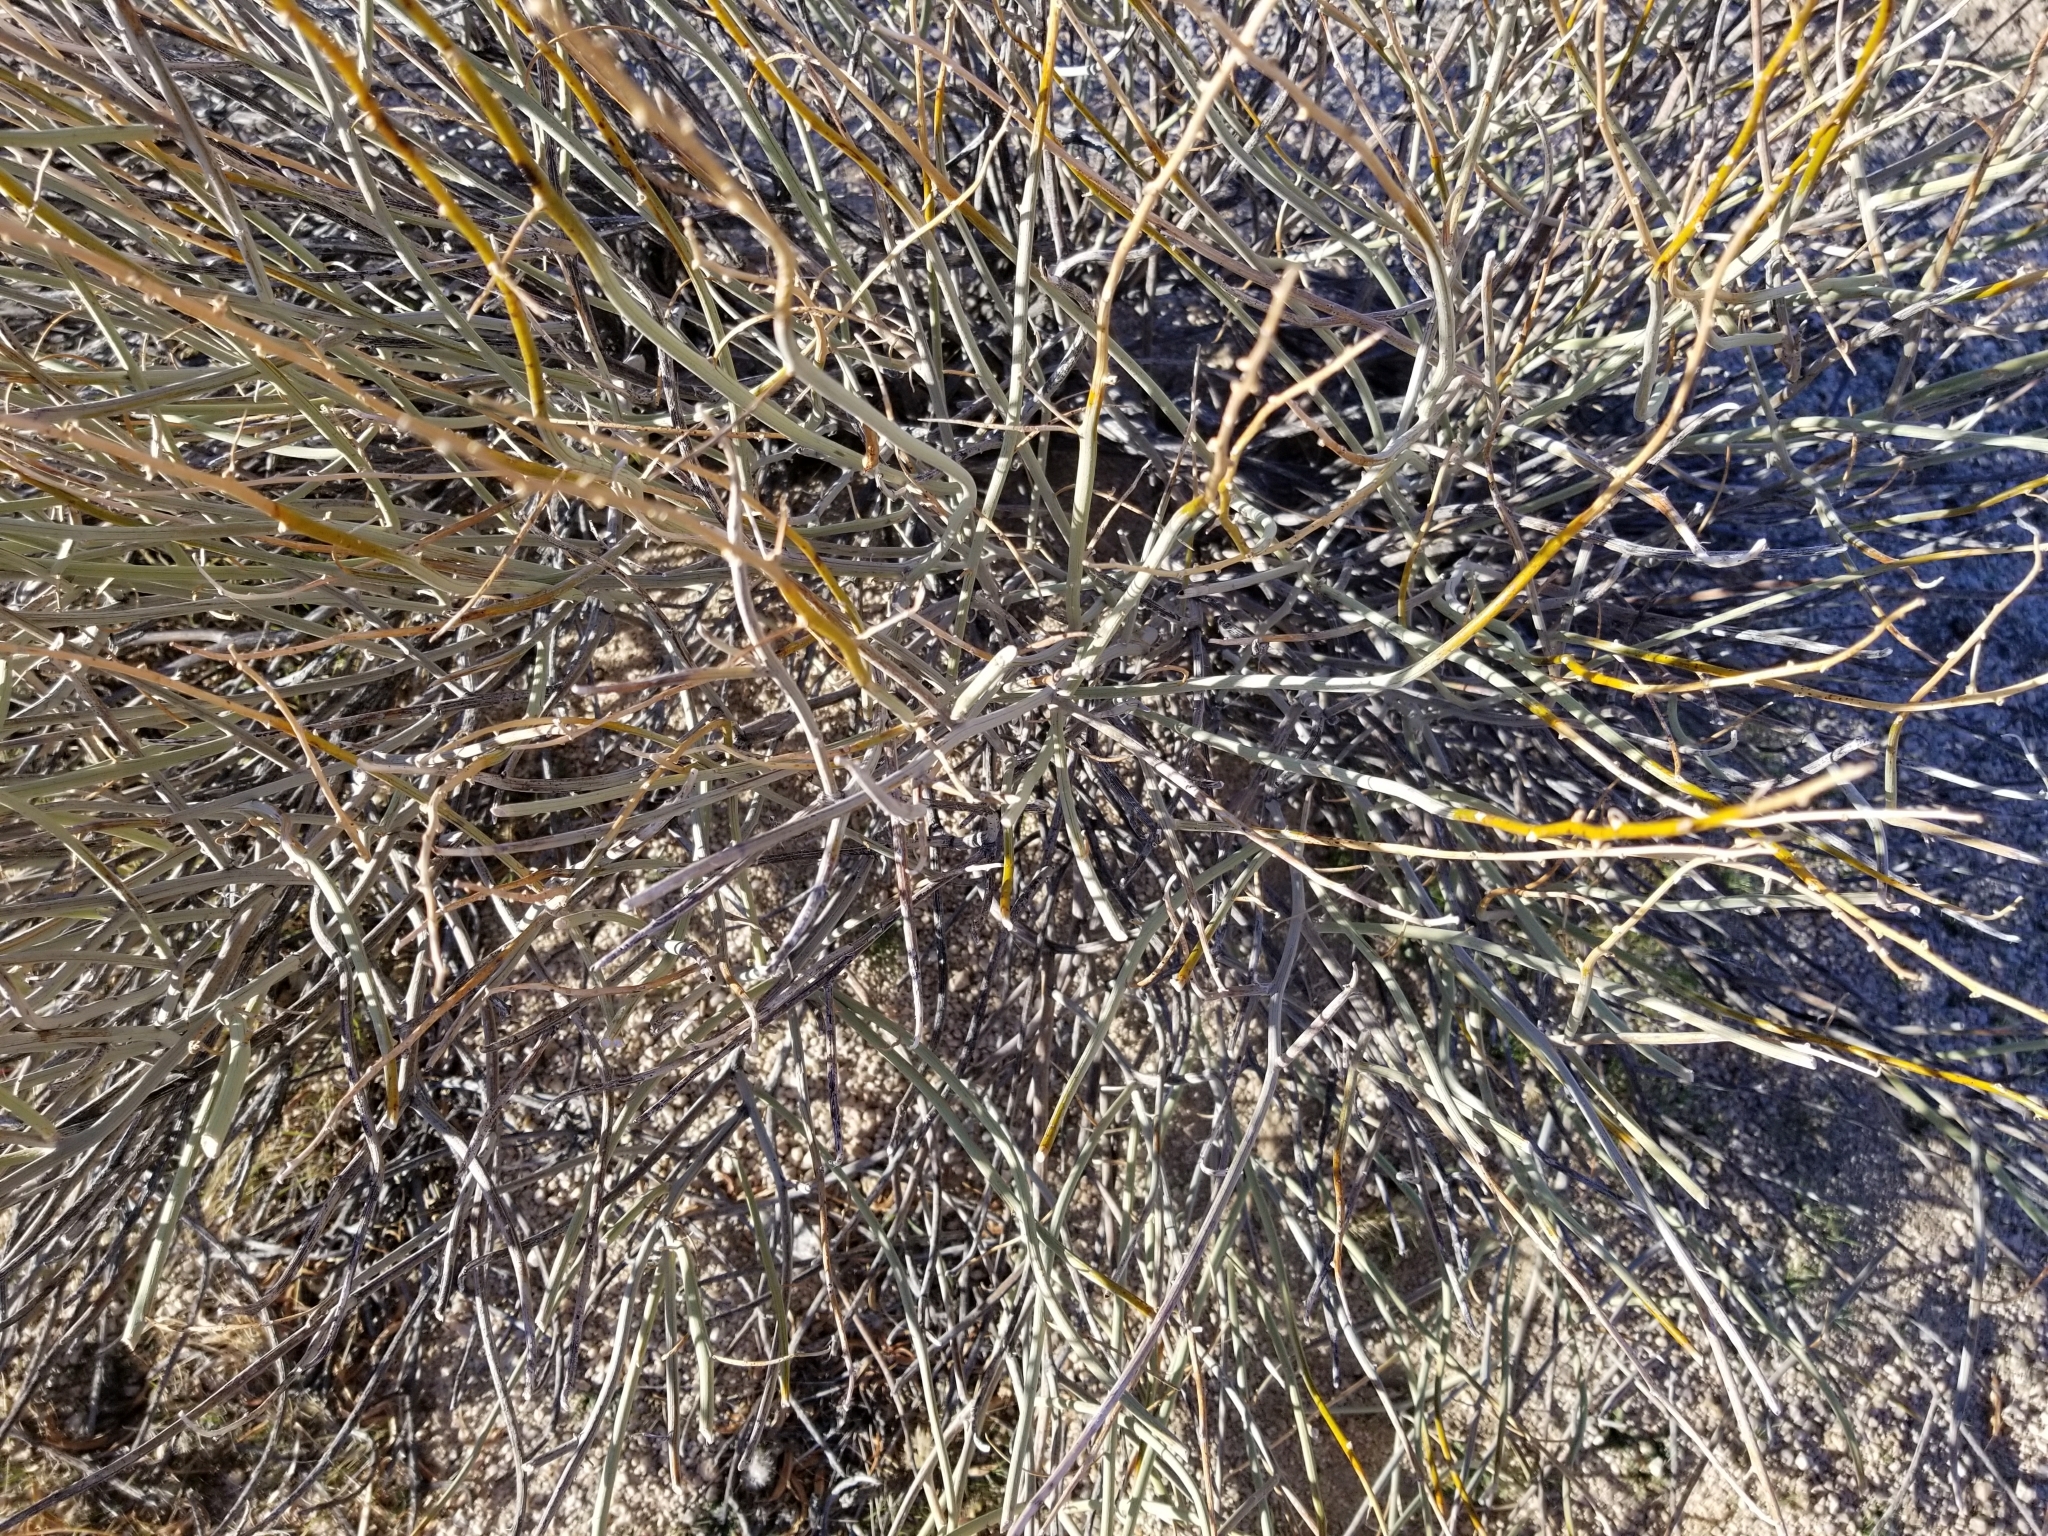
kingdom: Plantae
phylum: Tracheophyta
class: Magnoliopsida
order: Fabales
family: Fabaceae
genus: Senna
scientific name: Senna armata
